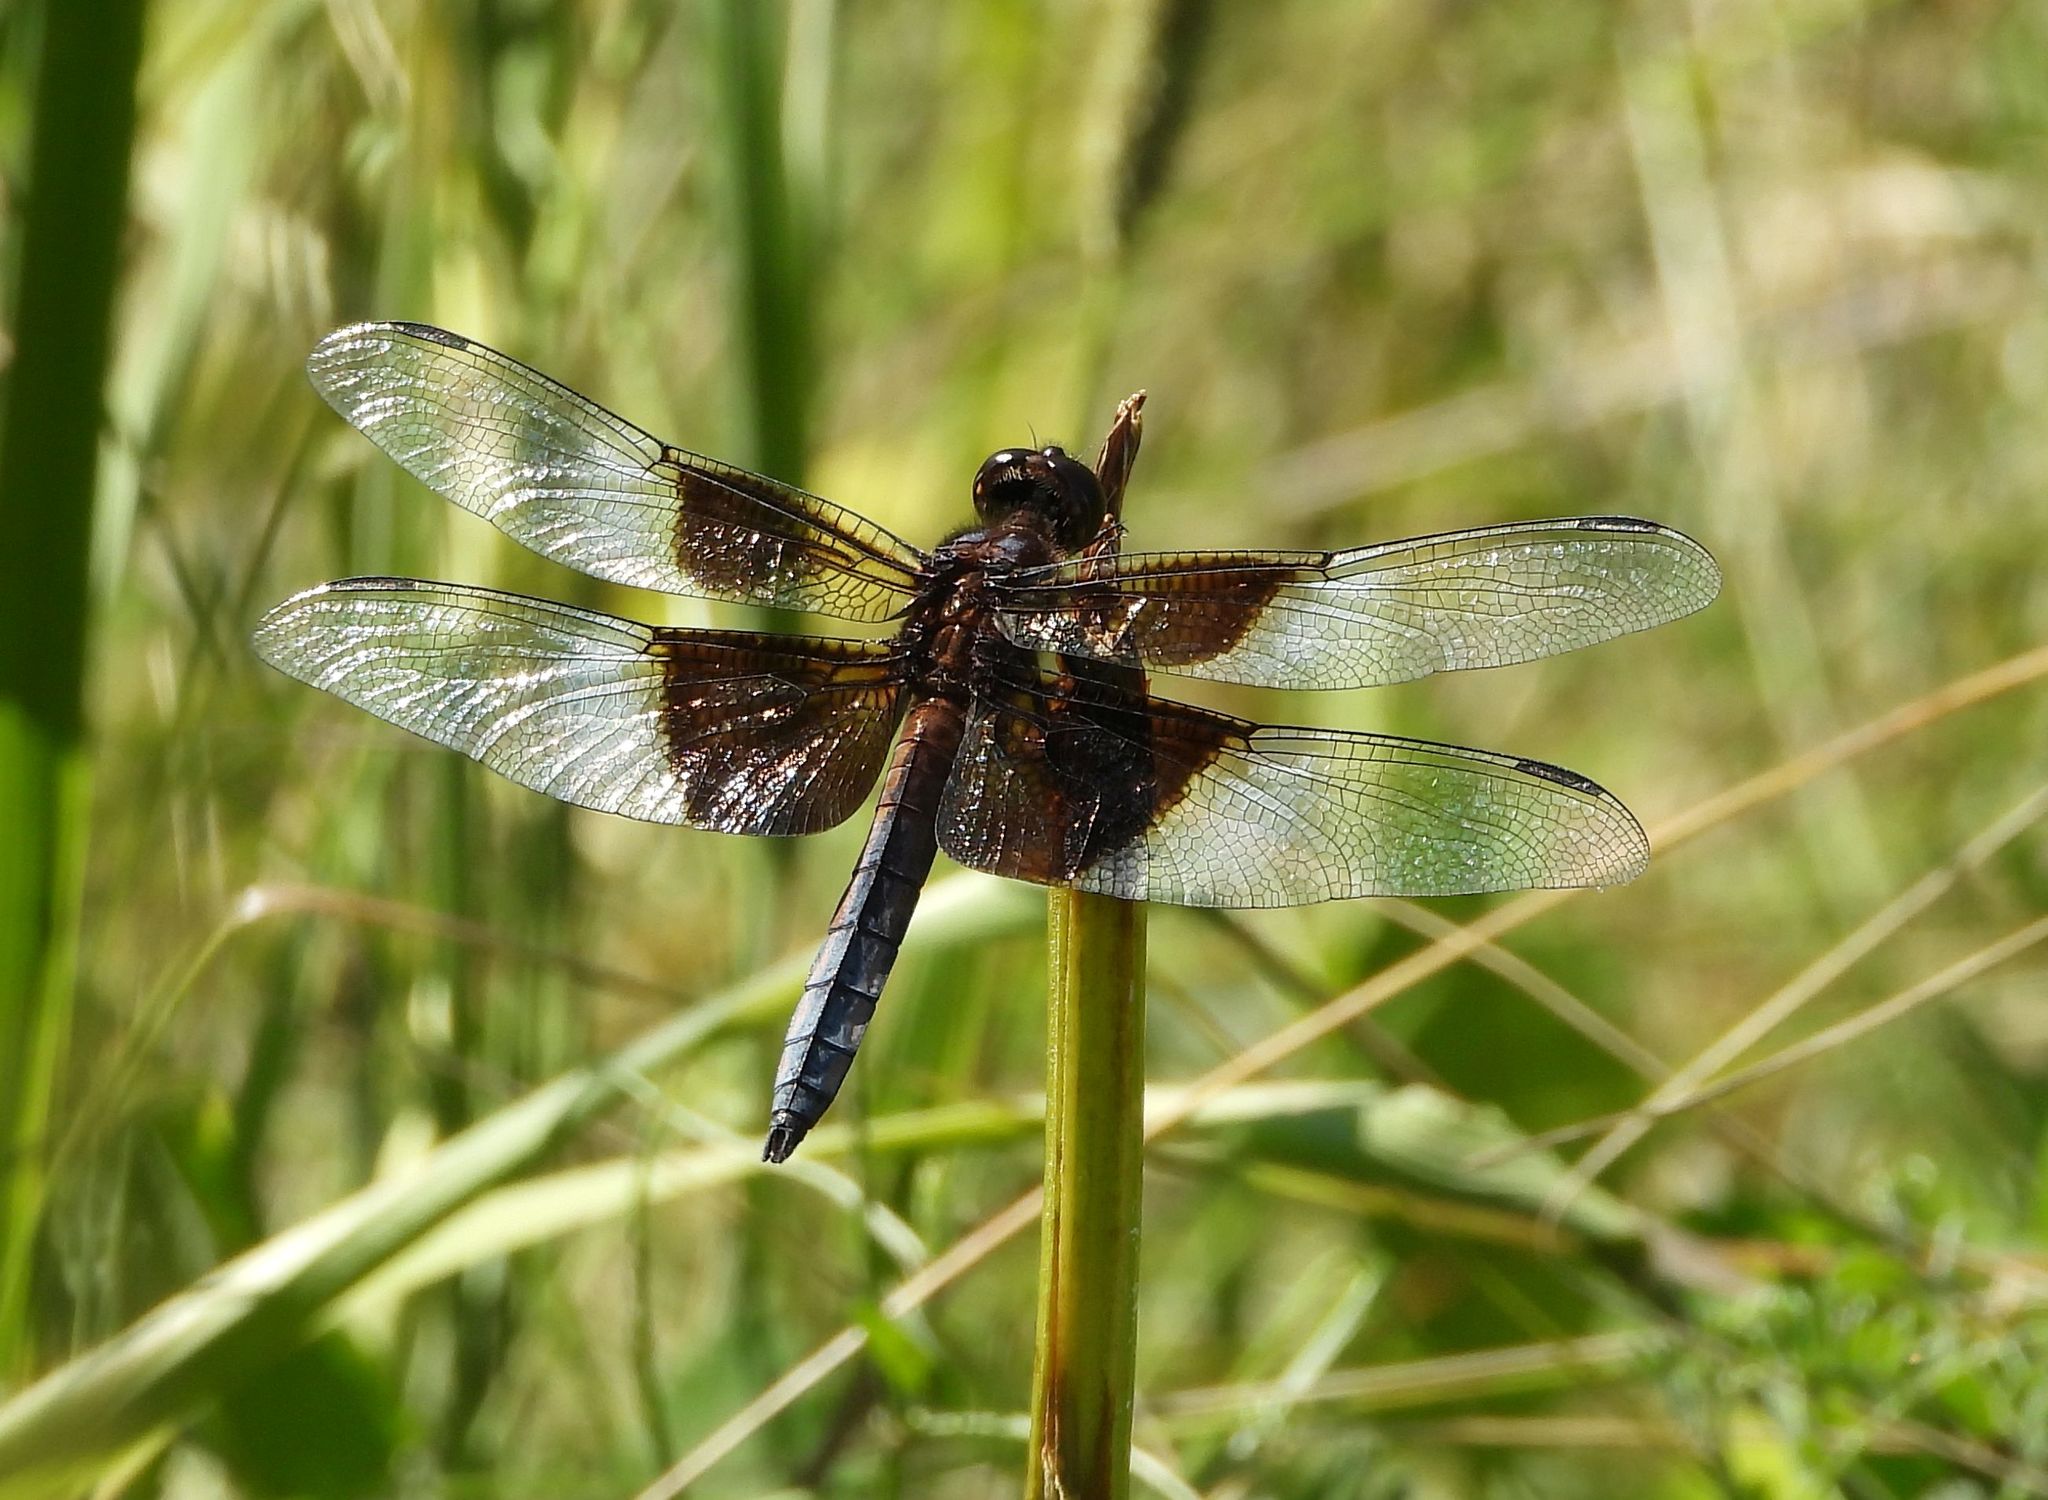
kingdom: Animalia
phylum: Arthropoda
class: Insecta
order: Odonata
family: Libellulidae
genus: Libellula
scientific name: Libellula luctuosa
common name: Widow skimmer
